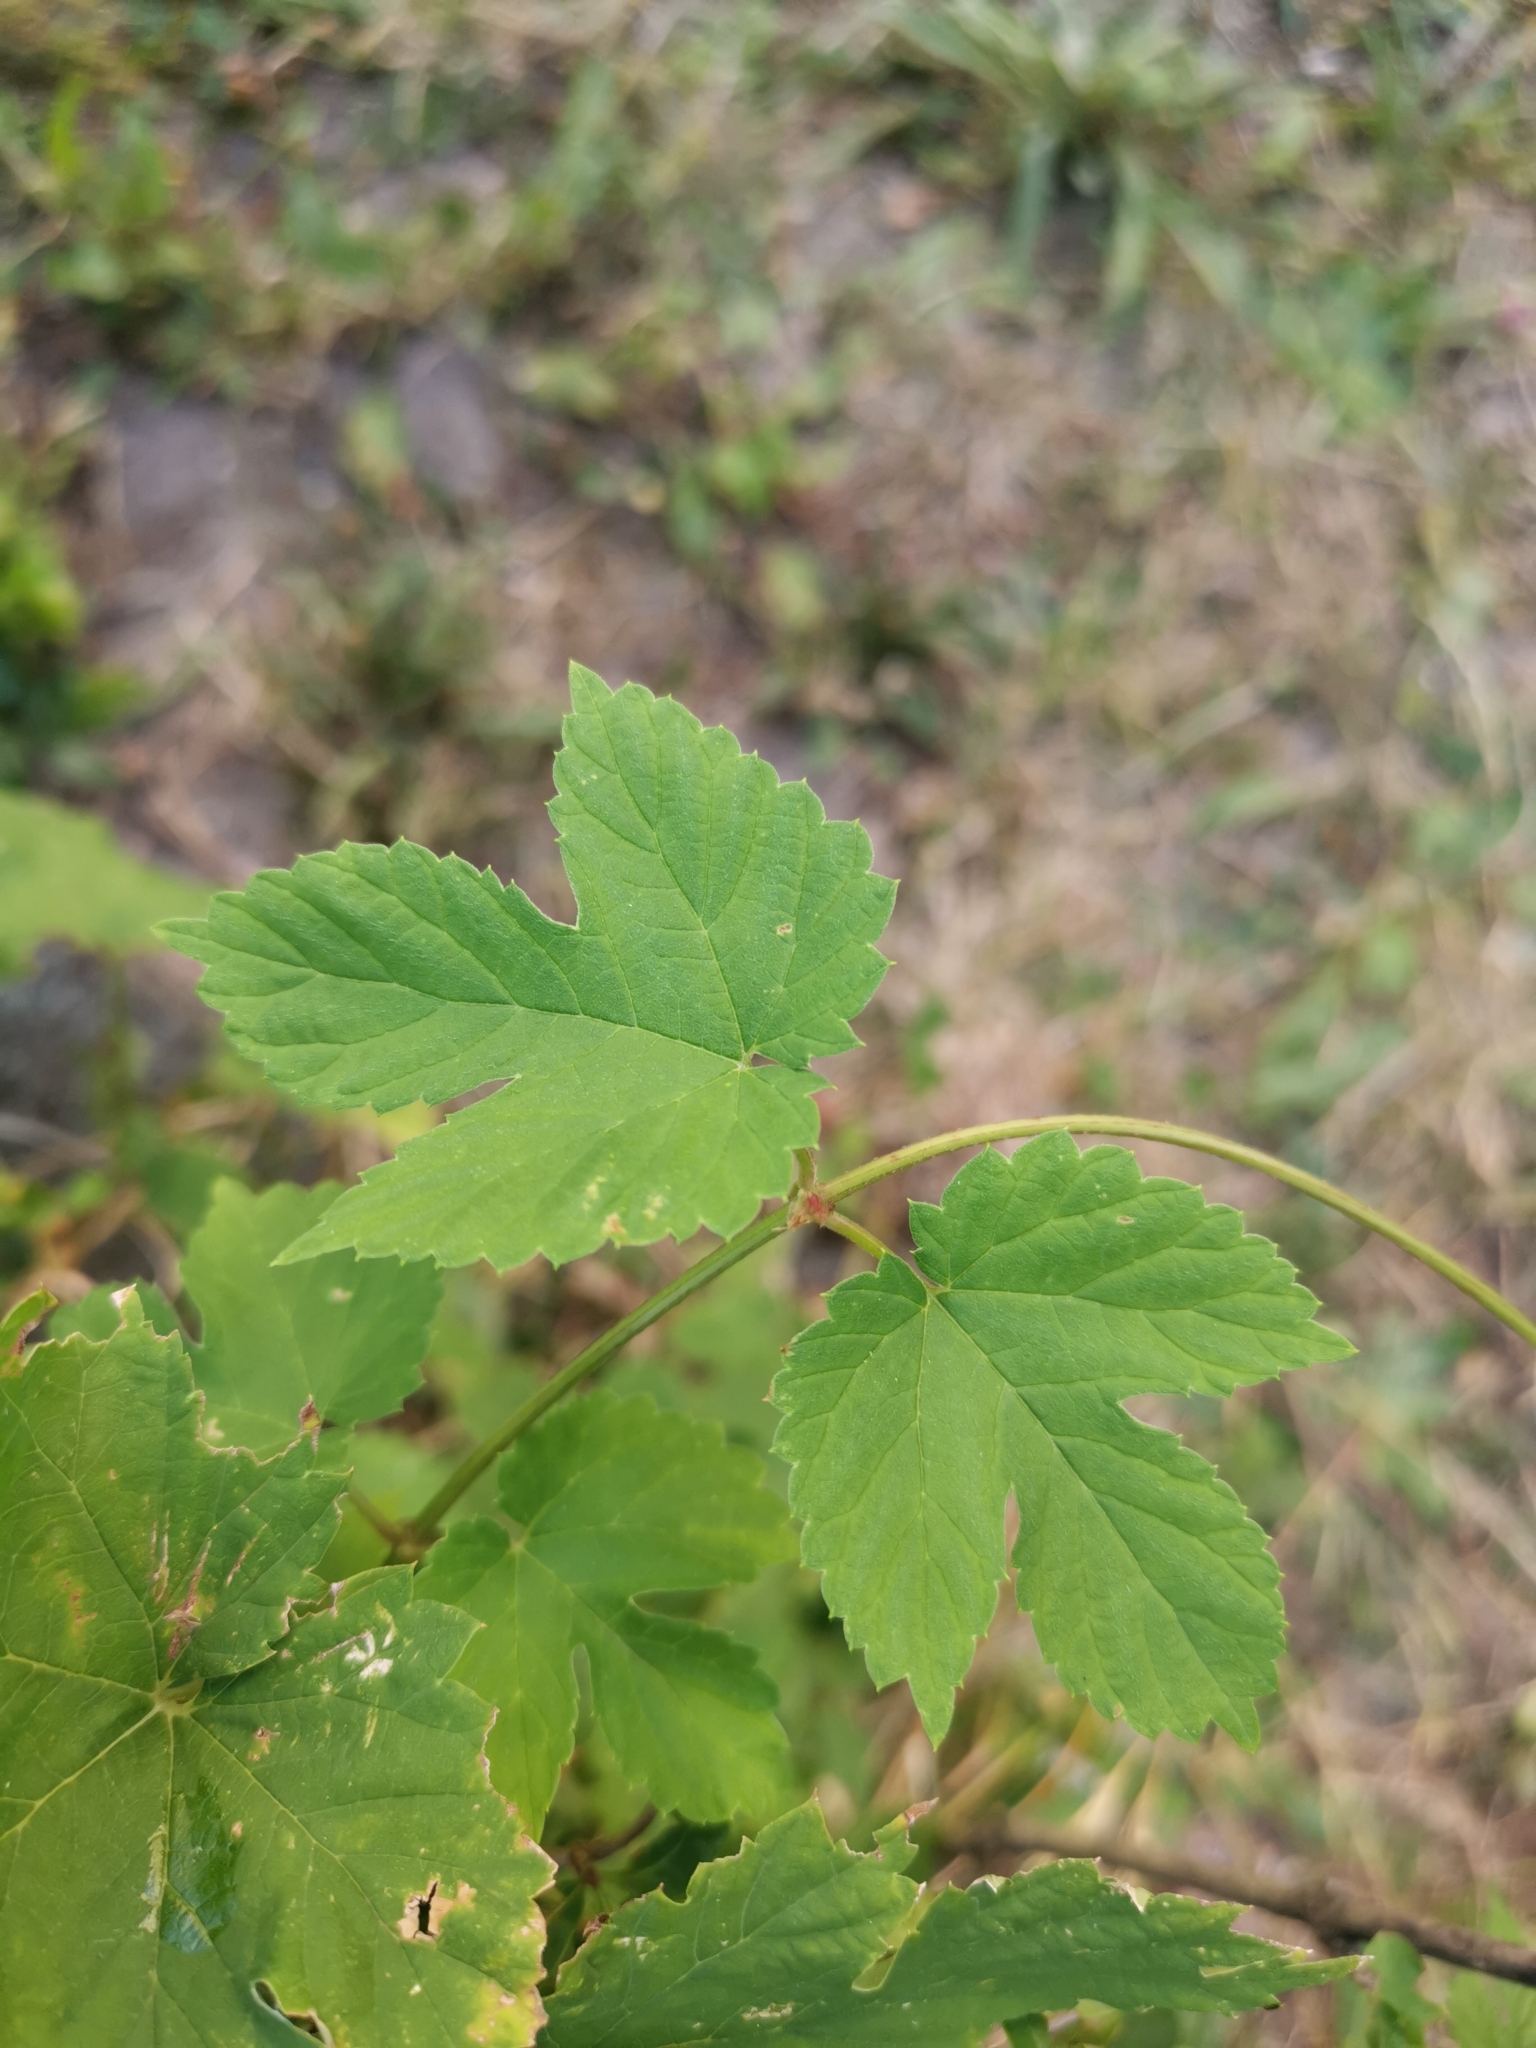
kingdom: Plantae
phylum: Tracheophyta
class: Magnoliopsida
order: Rosales
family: Cannabaceae
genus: Humulus
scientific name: Humulus lupulus
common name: Hop
